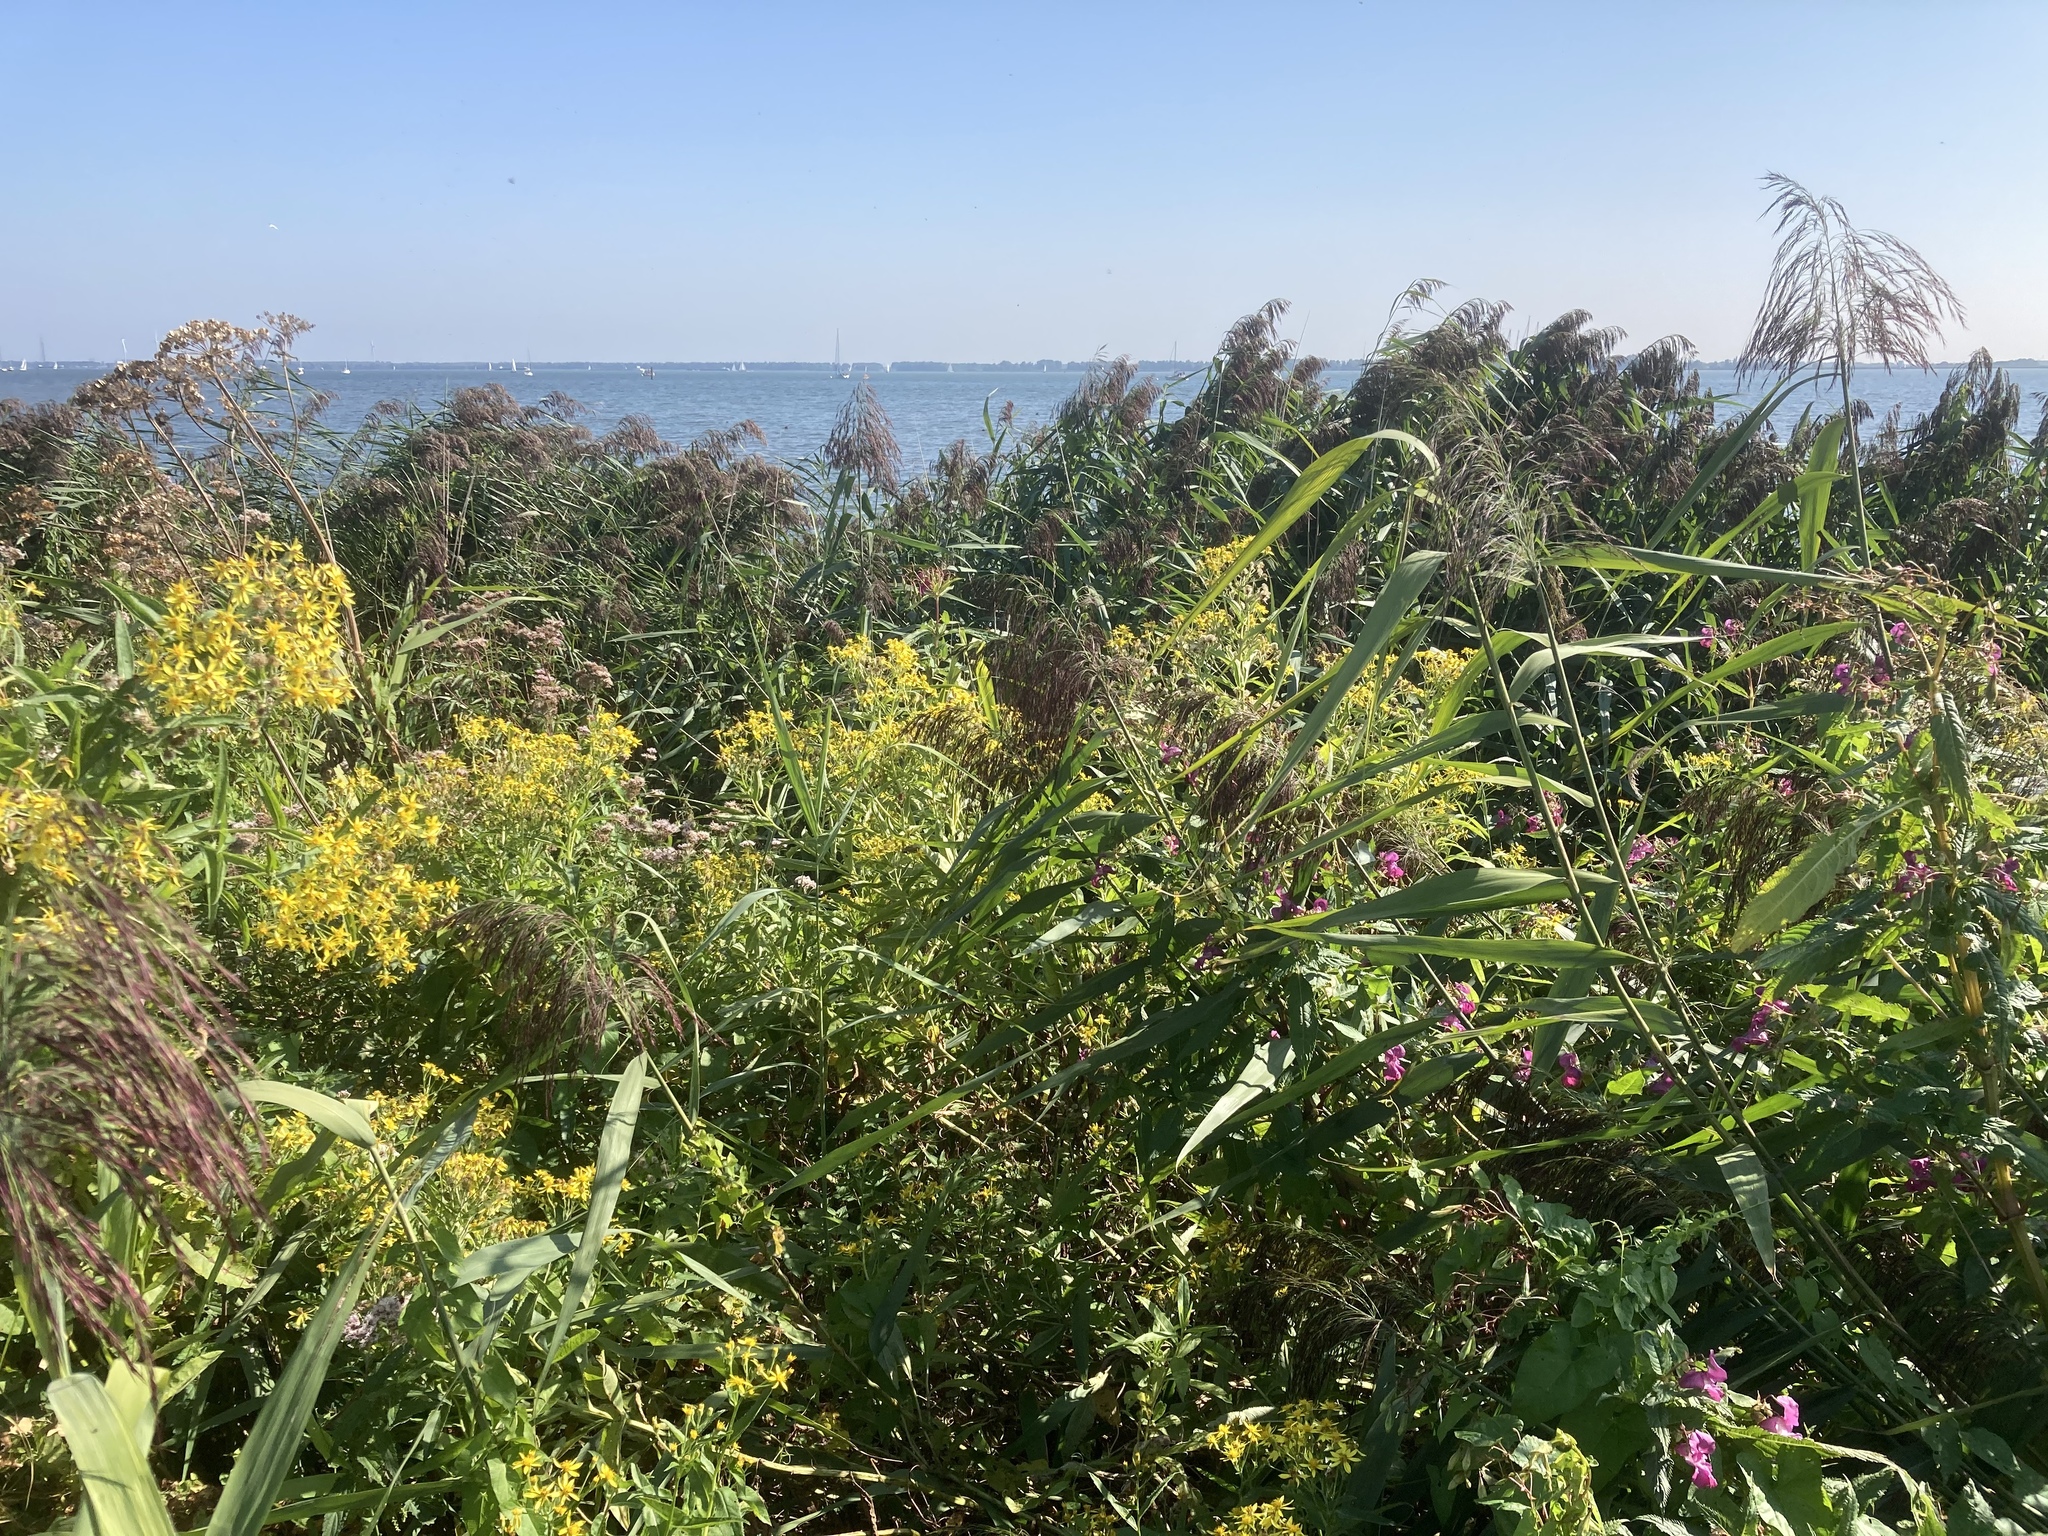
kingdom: Plantae
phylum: Tracheophyta
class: Liliopsida
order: Poales
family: Poaceae
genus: Phragmites
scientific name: Phragmites australis
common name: Common reed
